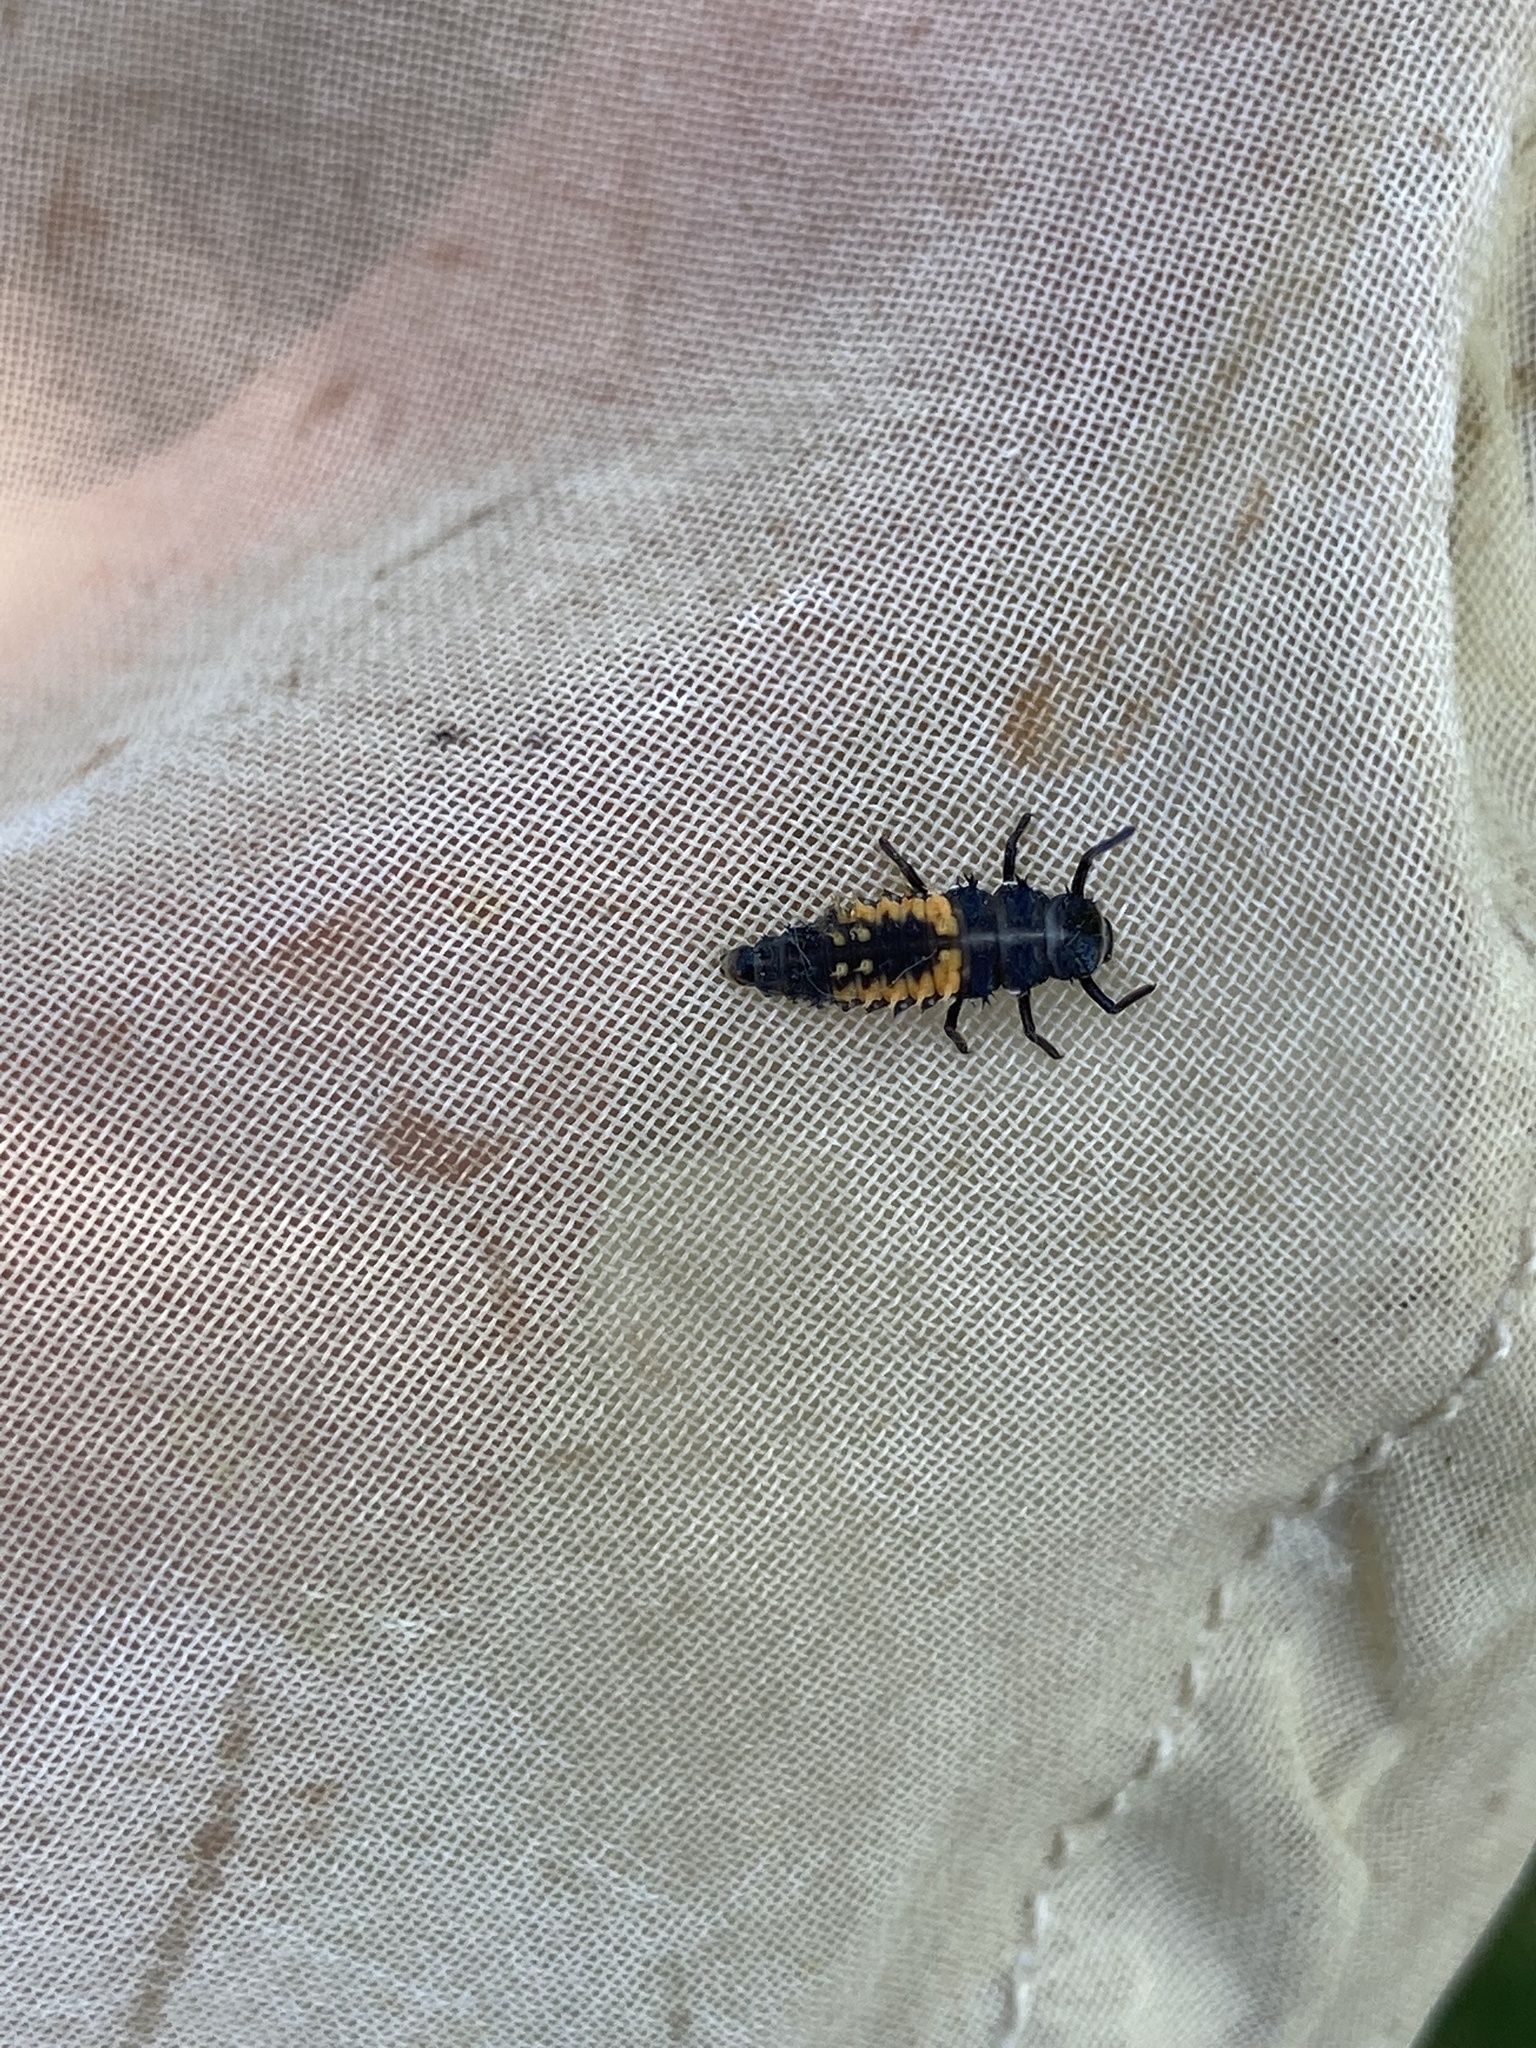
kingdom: Animalia
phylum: Arthropoda
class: Insecta
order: Coleoptera
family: Coccinellidae
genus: Harmonia
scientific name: Harmonia axyridis
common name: Harlequin ladybird
